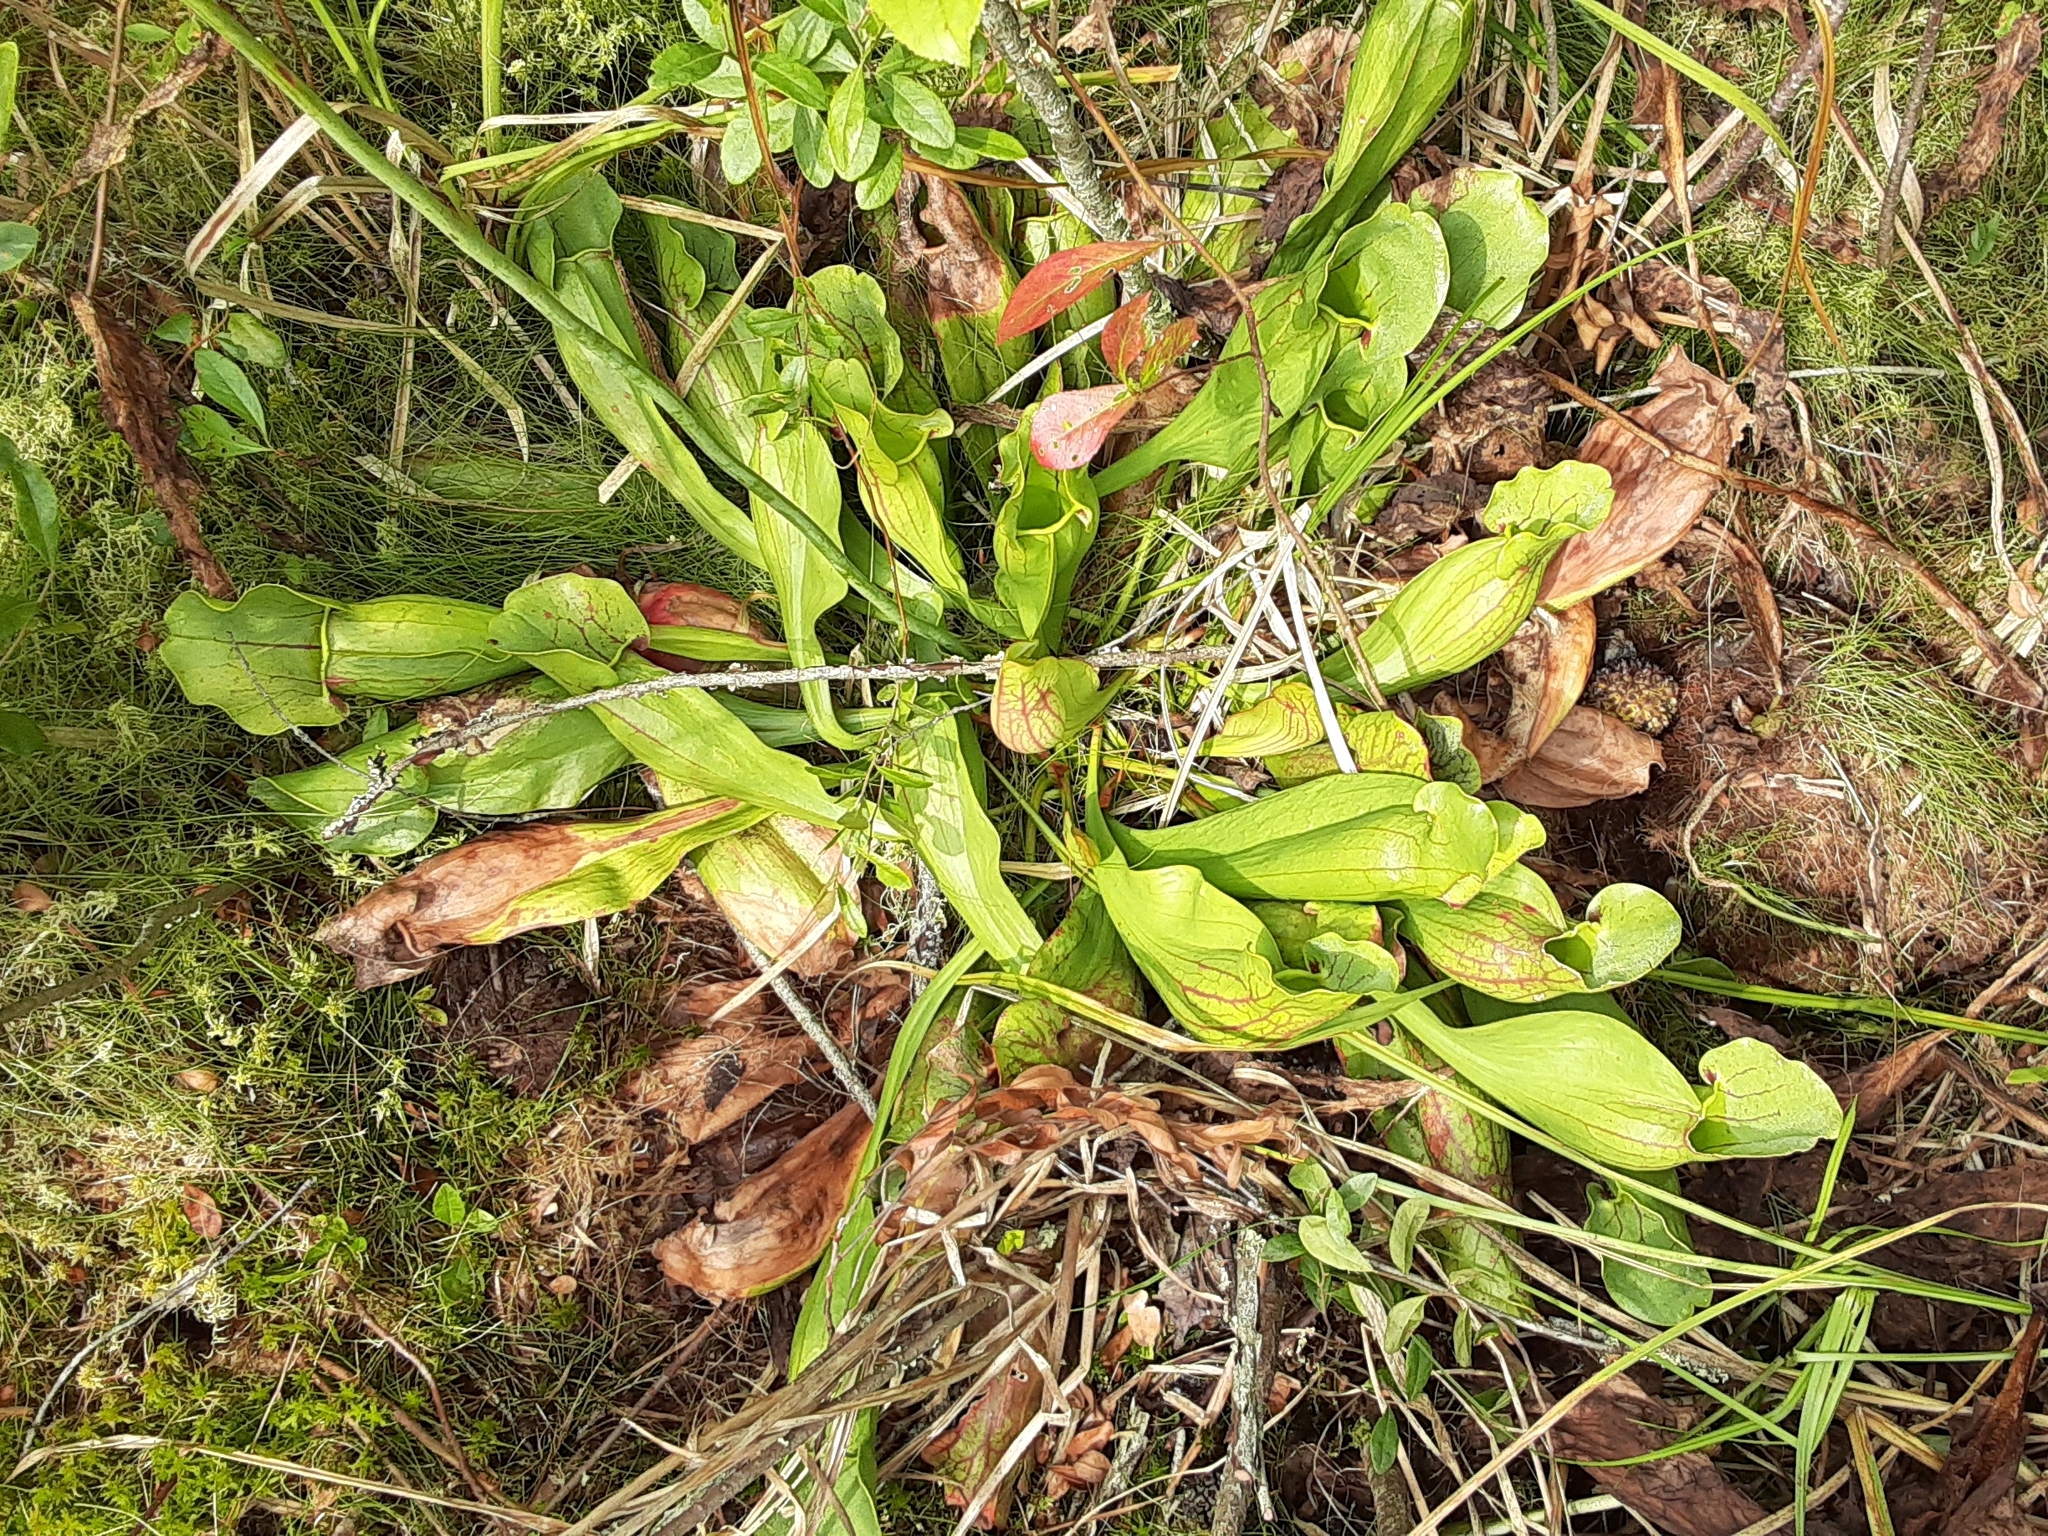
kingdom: Plantae
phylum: Tracheophyta
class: Magnoliopsida
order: Ericales
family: Sarraceniaceae
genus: Sarracenia
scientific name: Sarracenia purpurea
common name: Pitcherplant
